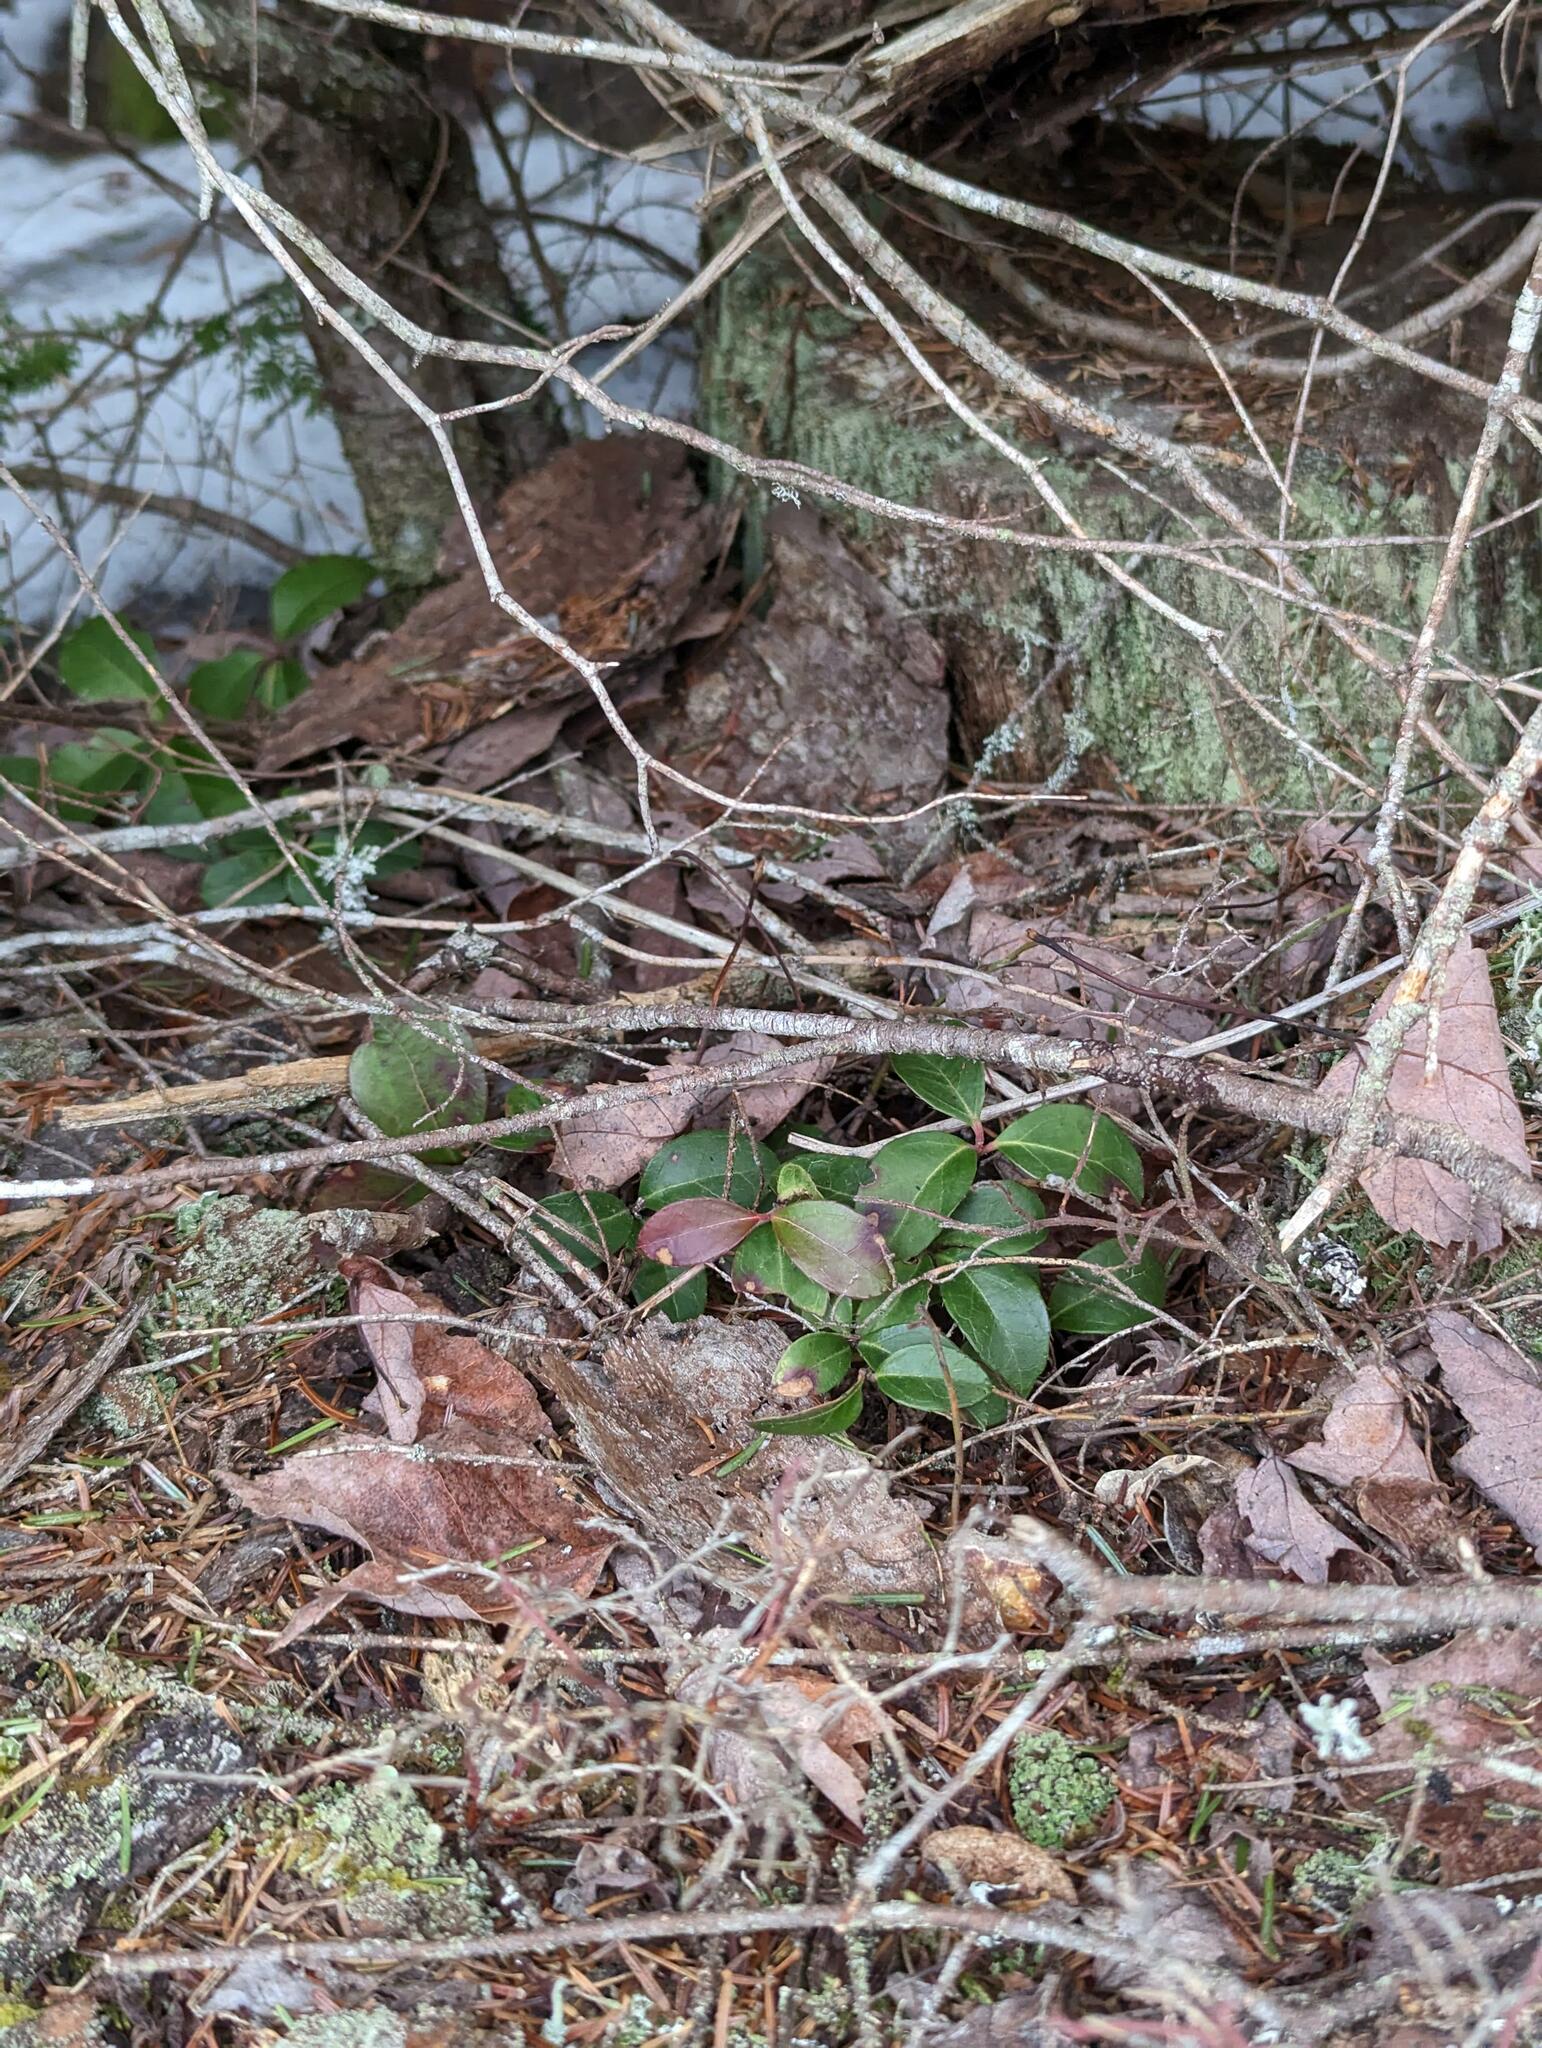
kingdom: Plantae
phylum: Tracheophyta
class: Magnoliopsida
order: Ericales
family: Ericaceae
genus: Gaultheria
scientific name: Gaultheria procumbens
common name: Checkerberry
